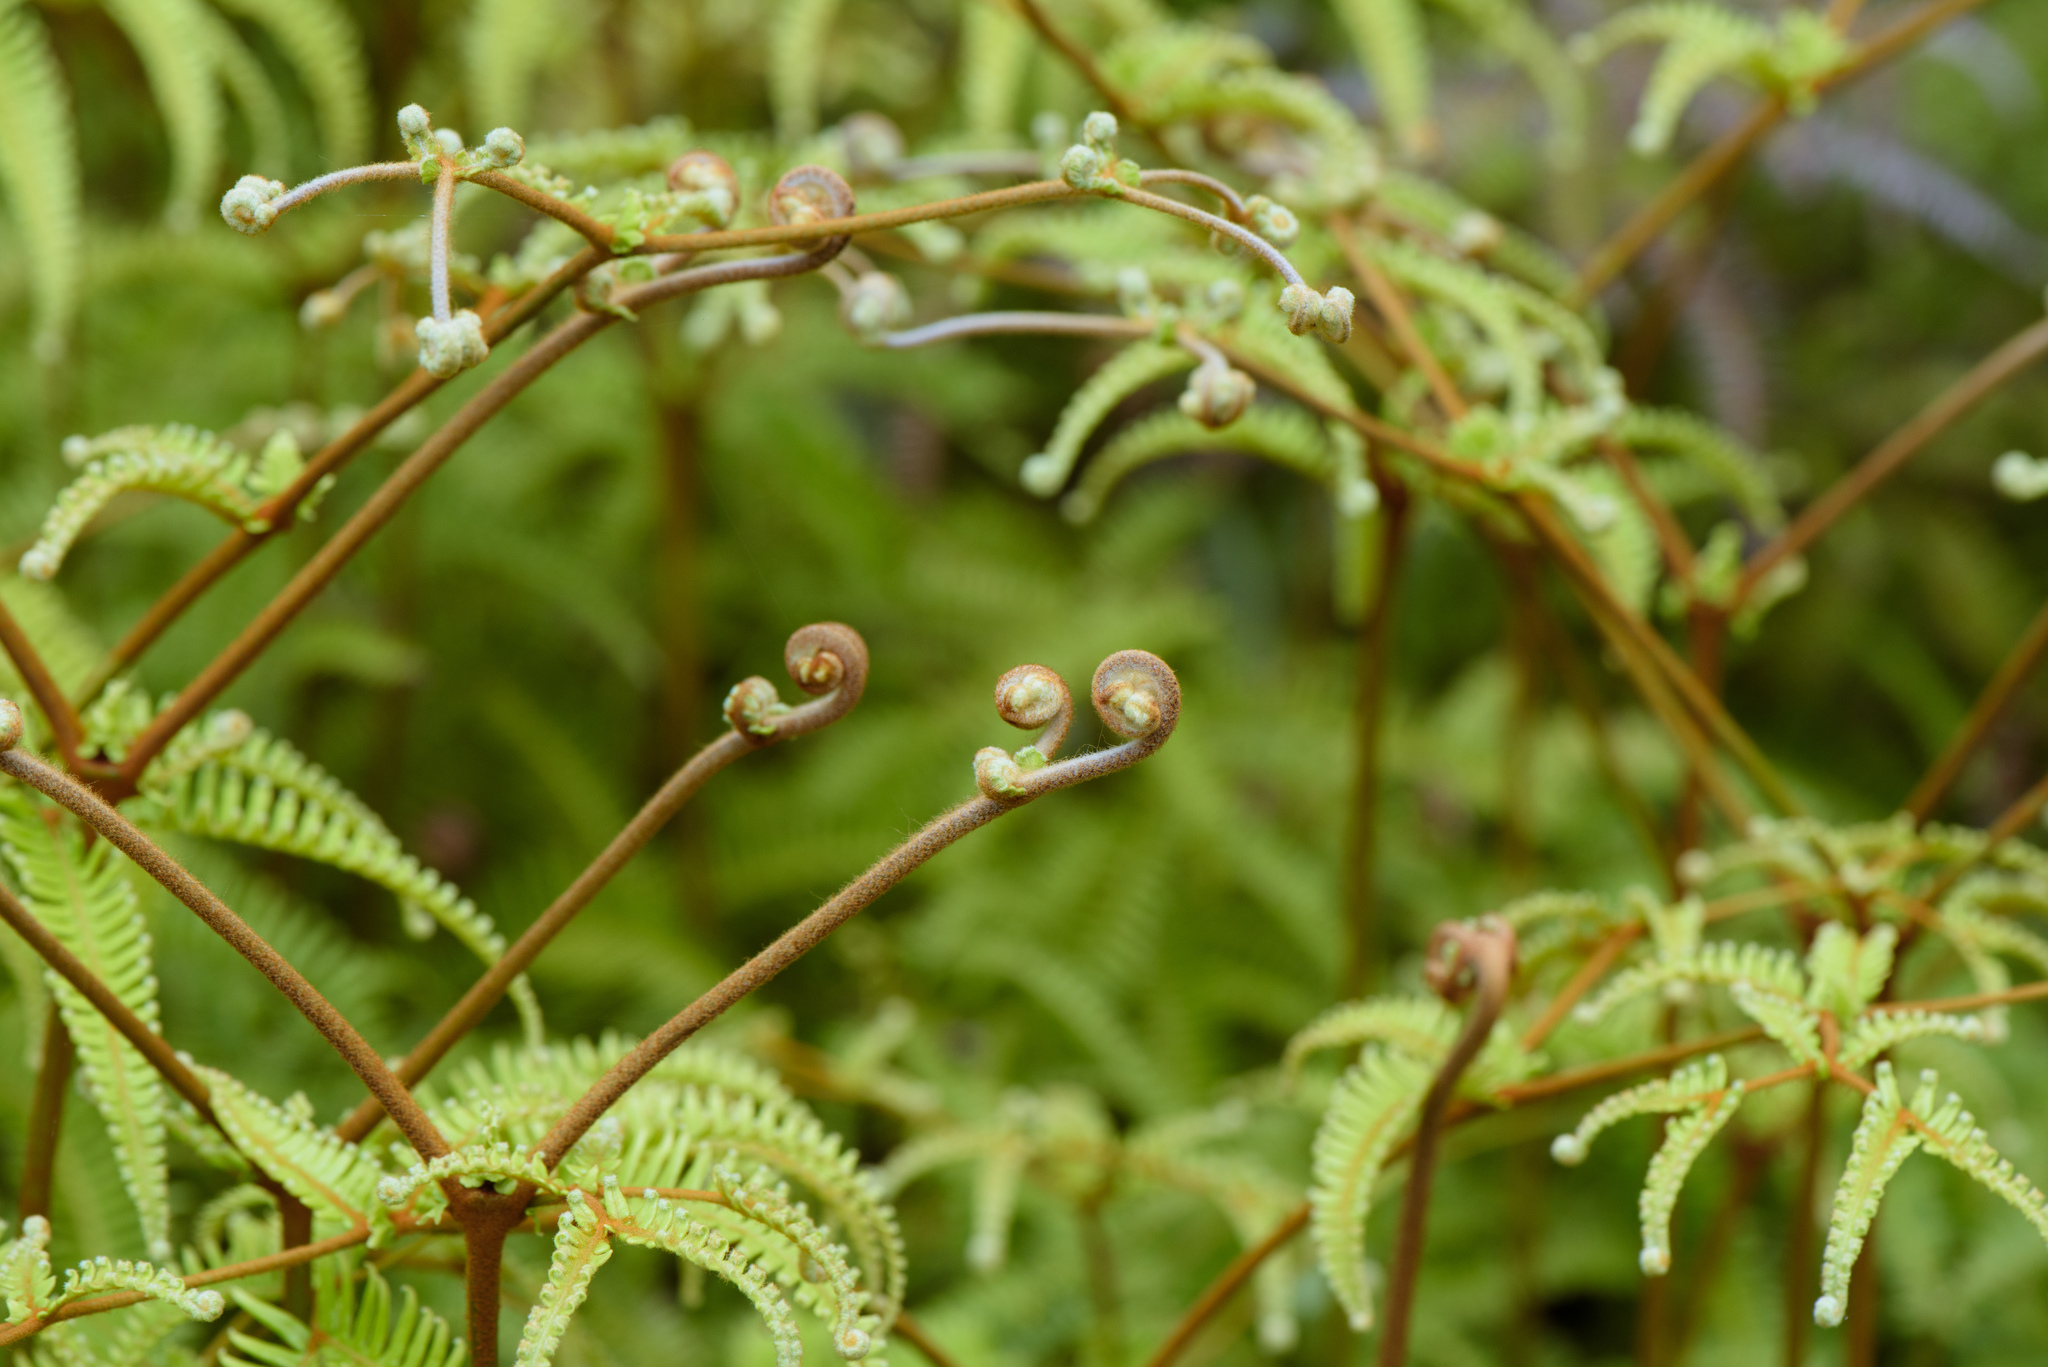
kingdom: Plantae
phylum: Tracheophyta
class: Polypodiopsida
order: Gleicheniales
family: Gleicheniaceae
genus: Dicranopteris
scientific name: Dicranopteris linearis
